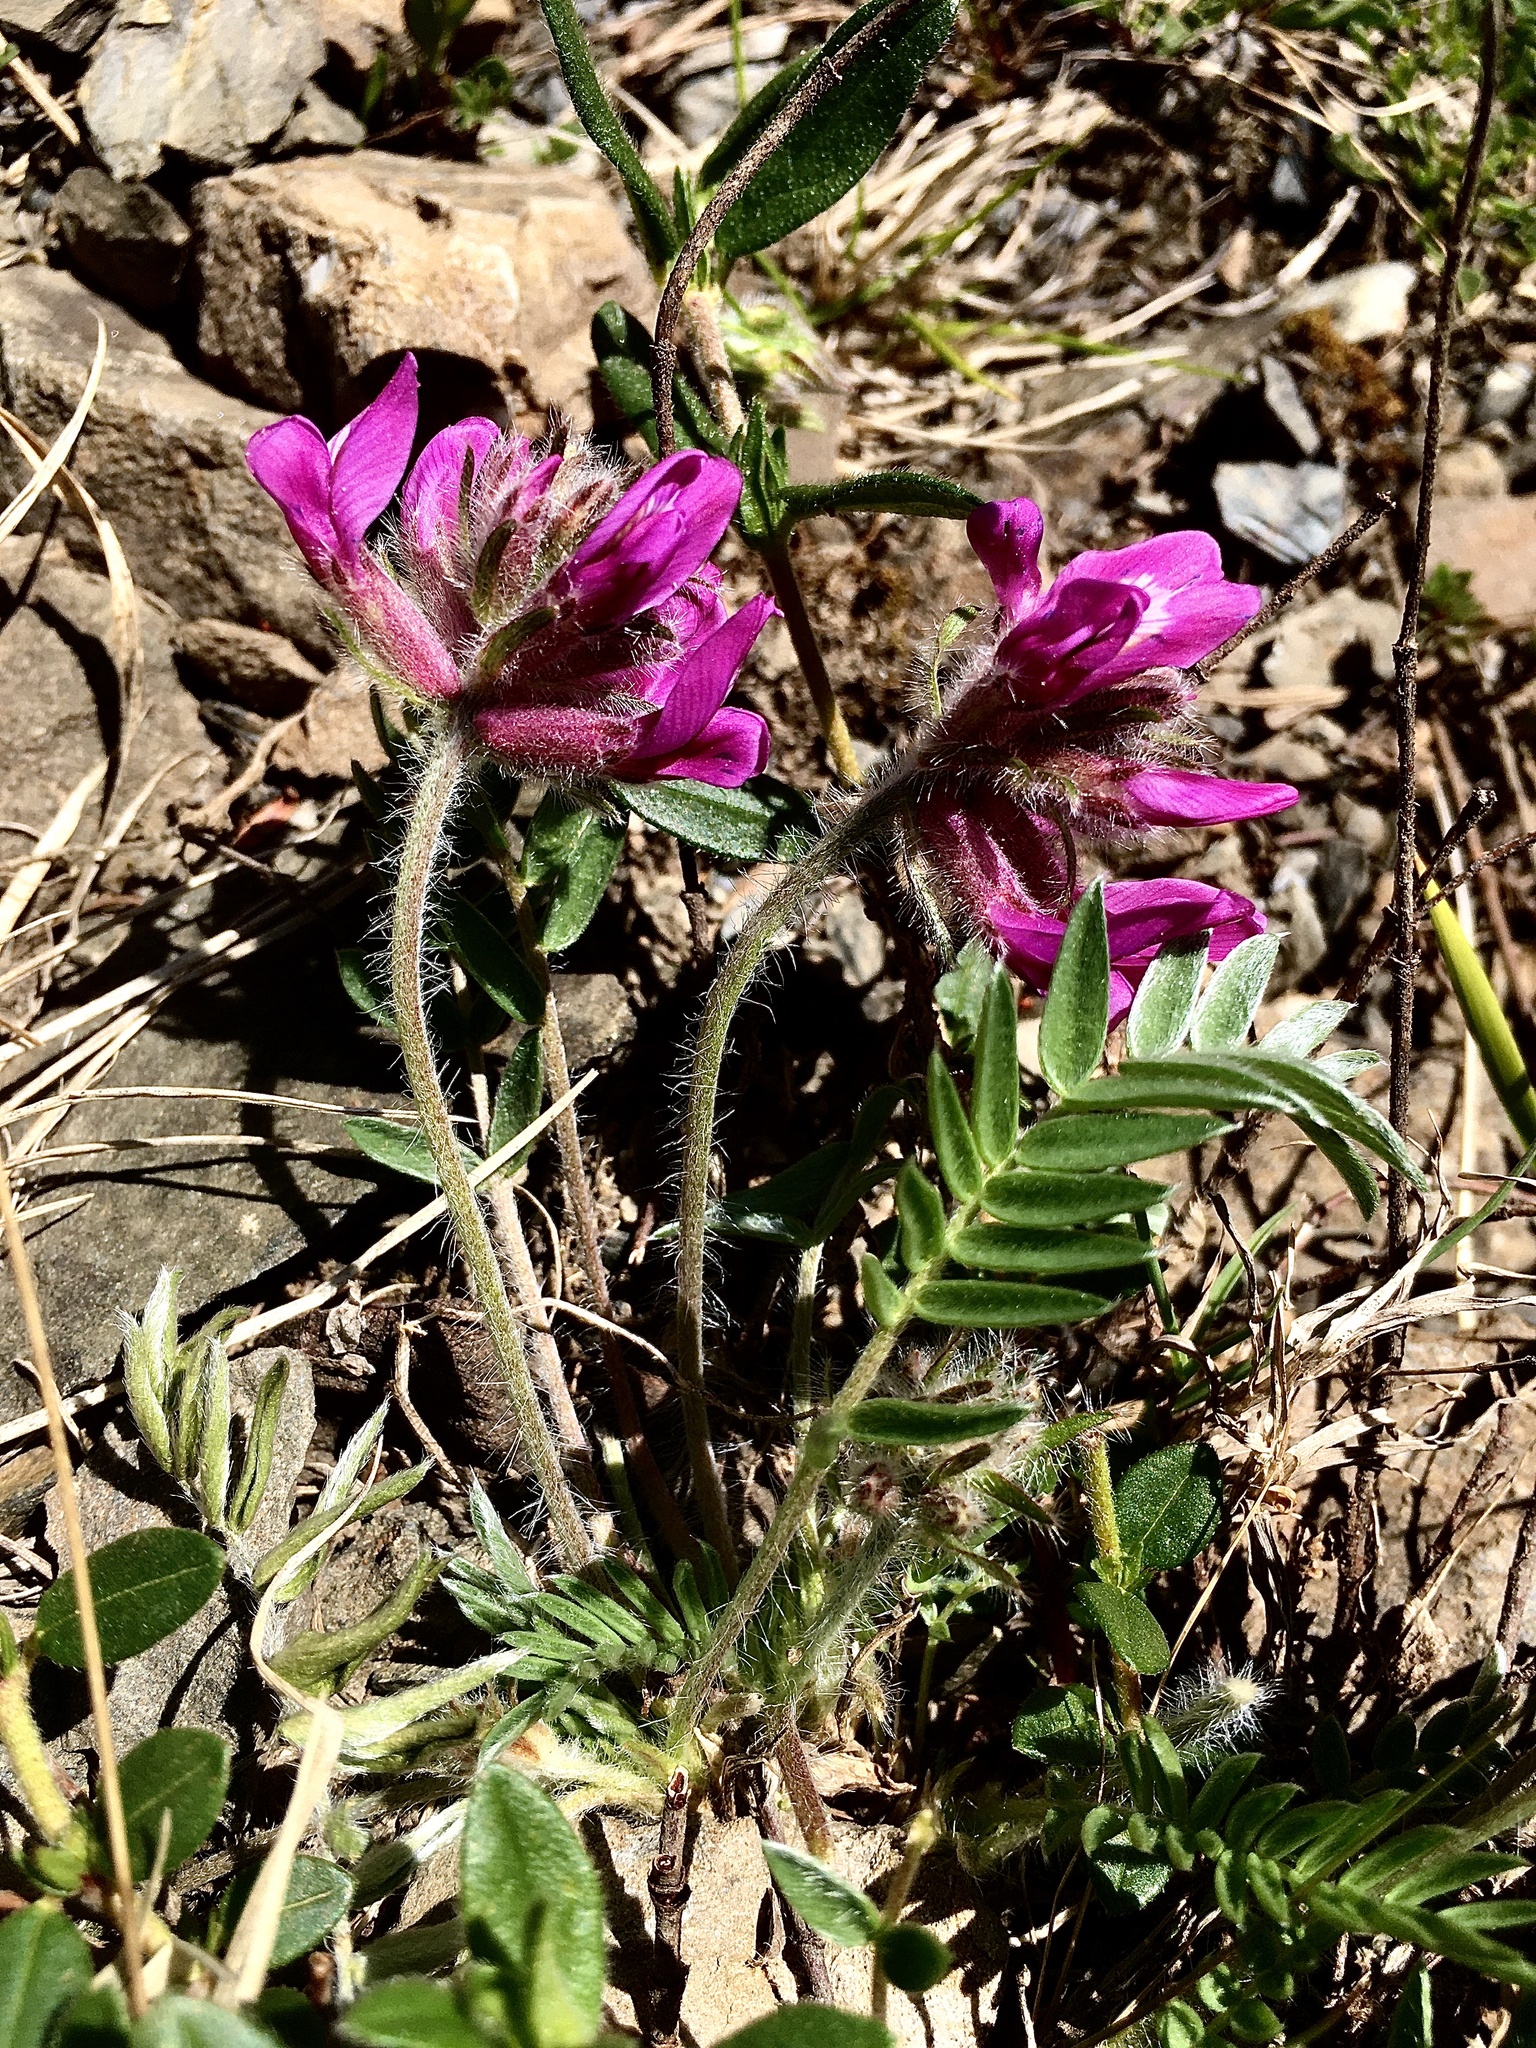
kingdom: Plantae
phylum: Tracheophyta
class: Magnoliopsida
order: Fabales
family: Fabaceae
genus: Oxytropis
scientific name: Oxytropis halleri
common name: Purple oxytropis
